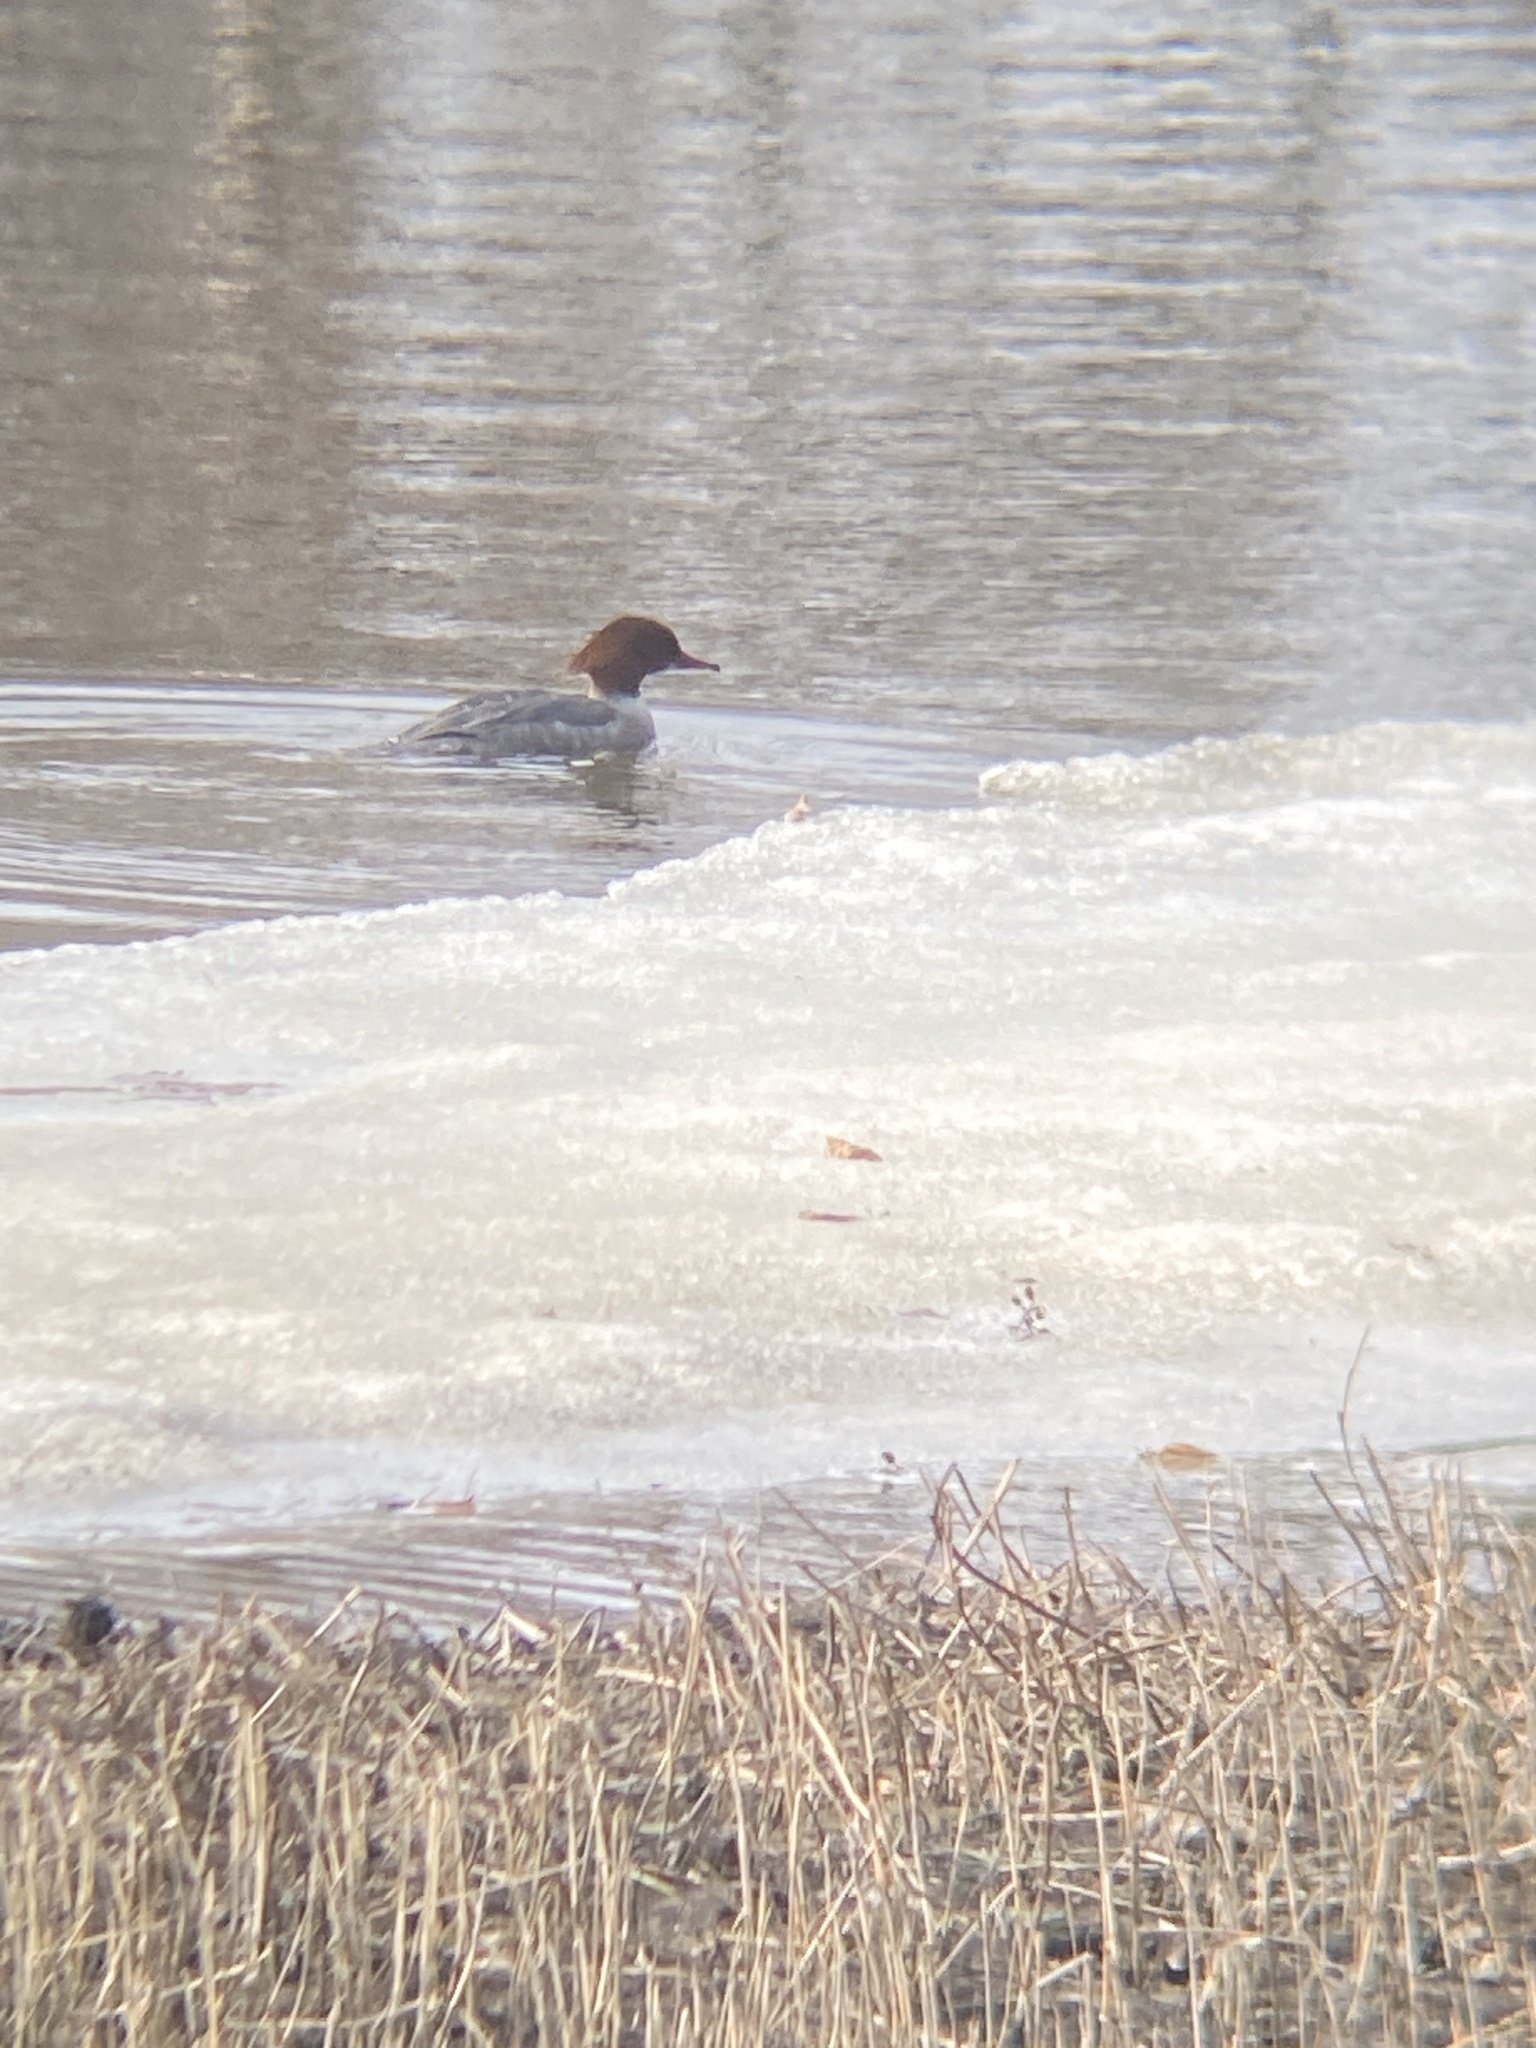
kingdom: Animalia
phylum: Chordata
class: Aves
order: Anseriformes
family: Anatidae
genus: Mergus
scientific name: Mergus merganser
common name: Common merganser
